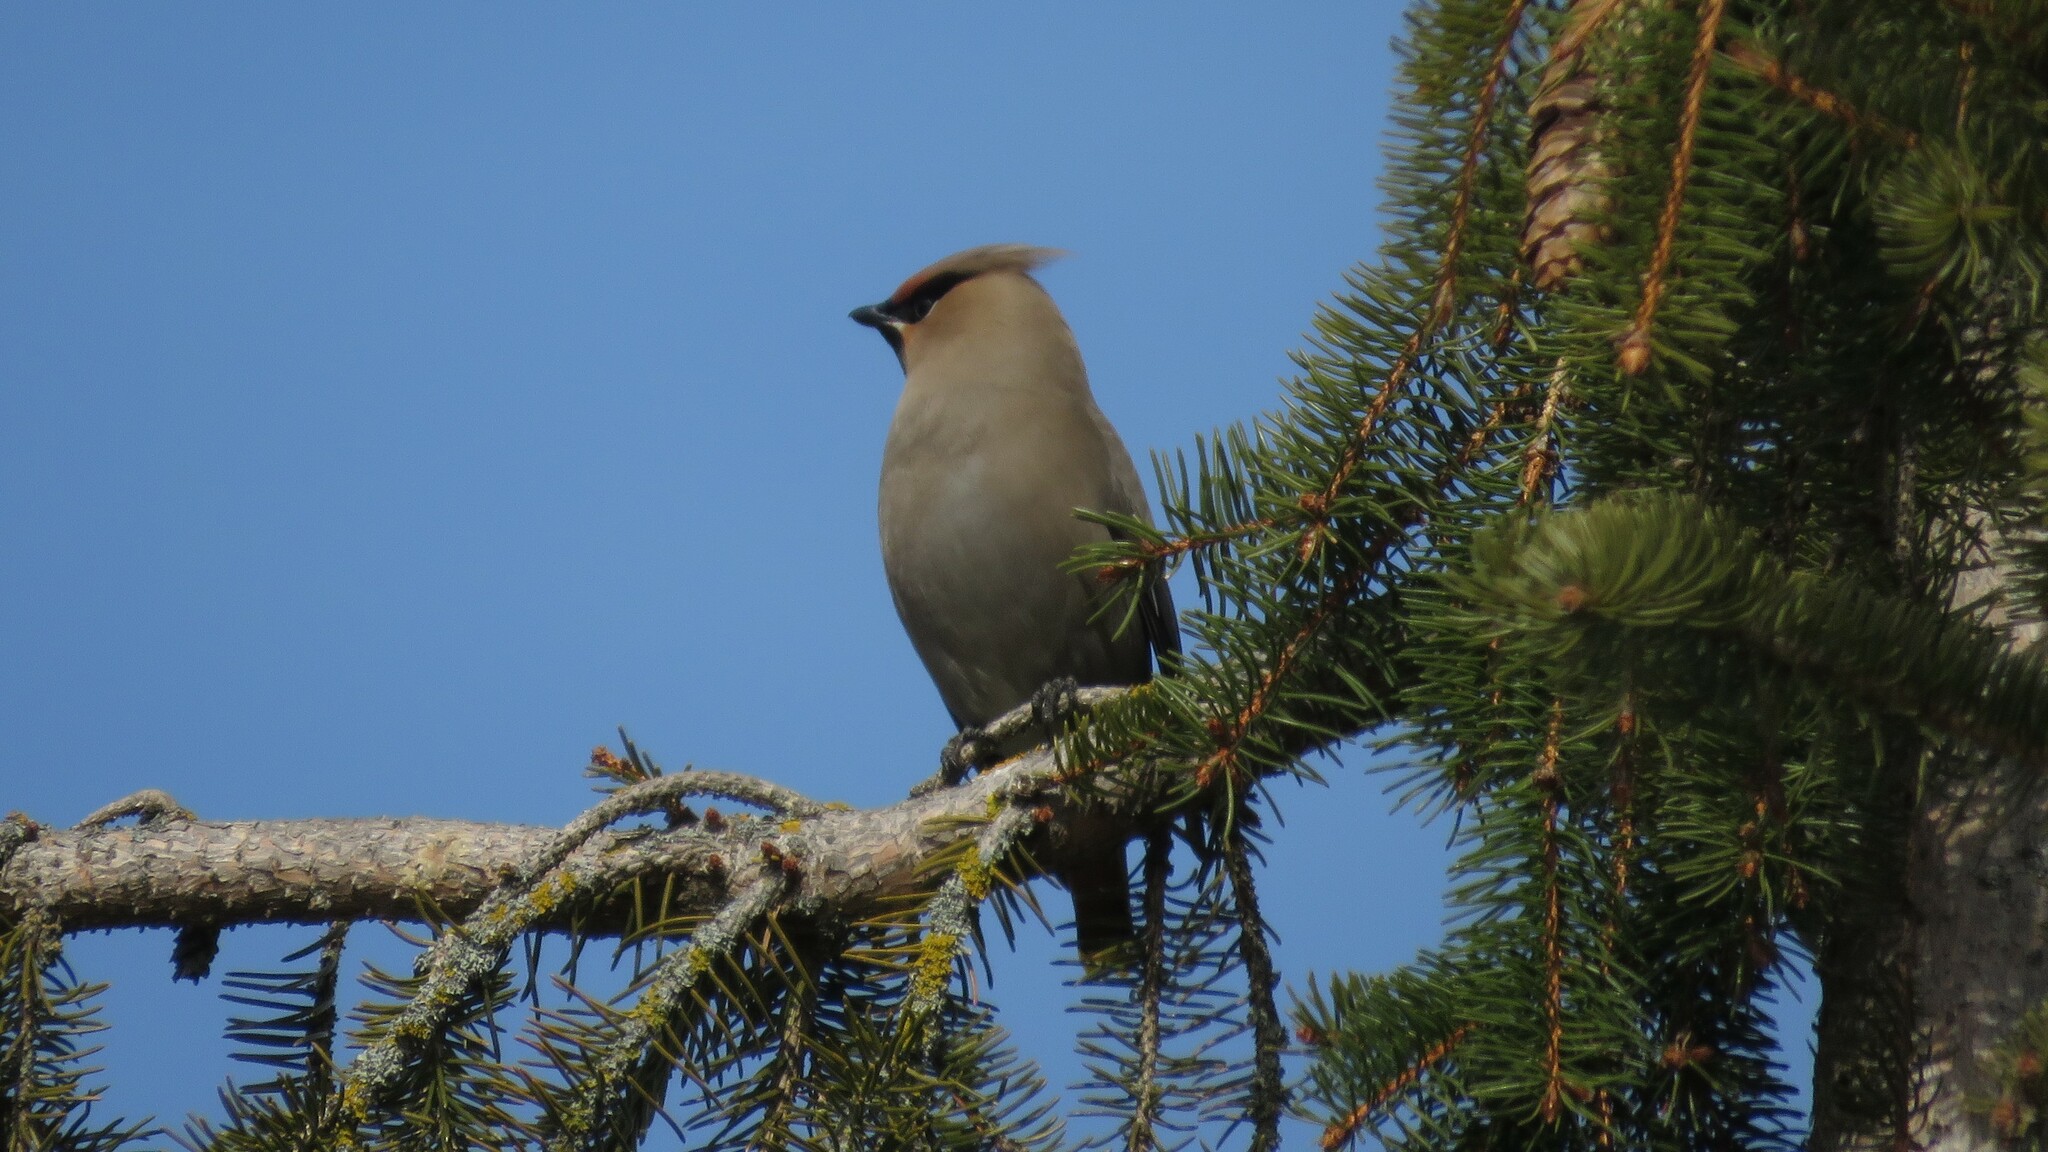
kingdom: Animalia
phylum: Chordata
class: Aves
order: Passeriformes
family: Bombycillidae
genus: Bombycilla
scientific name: Bombycilla garrulus
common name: Bohemian waxwing
